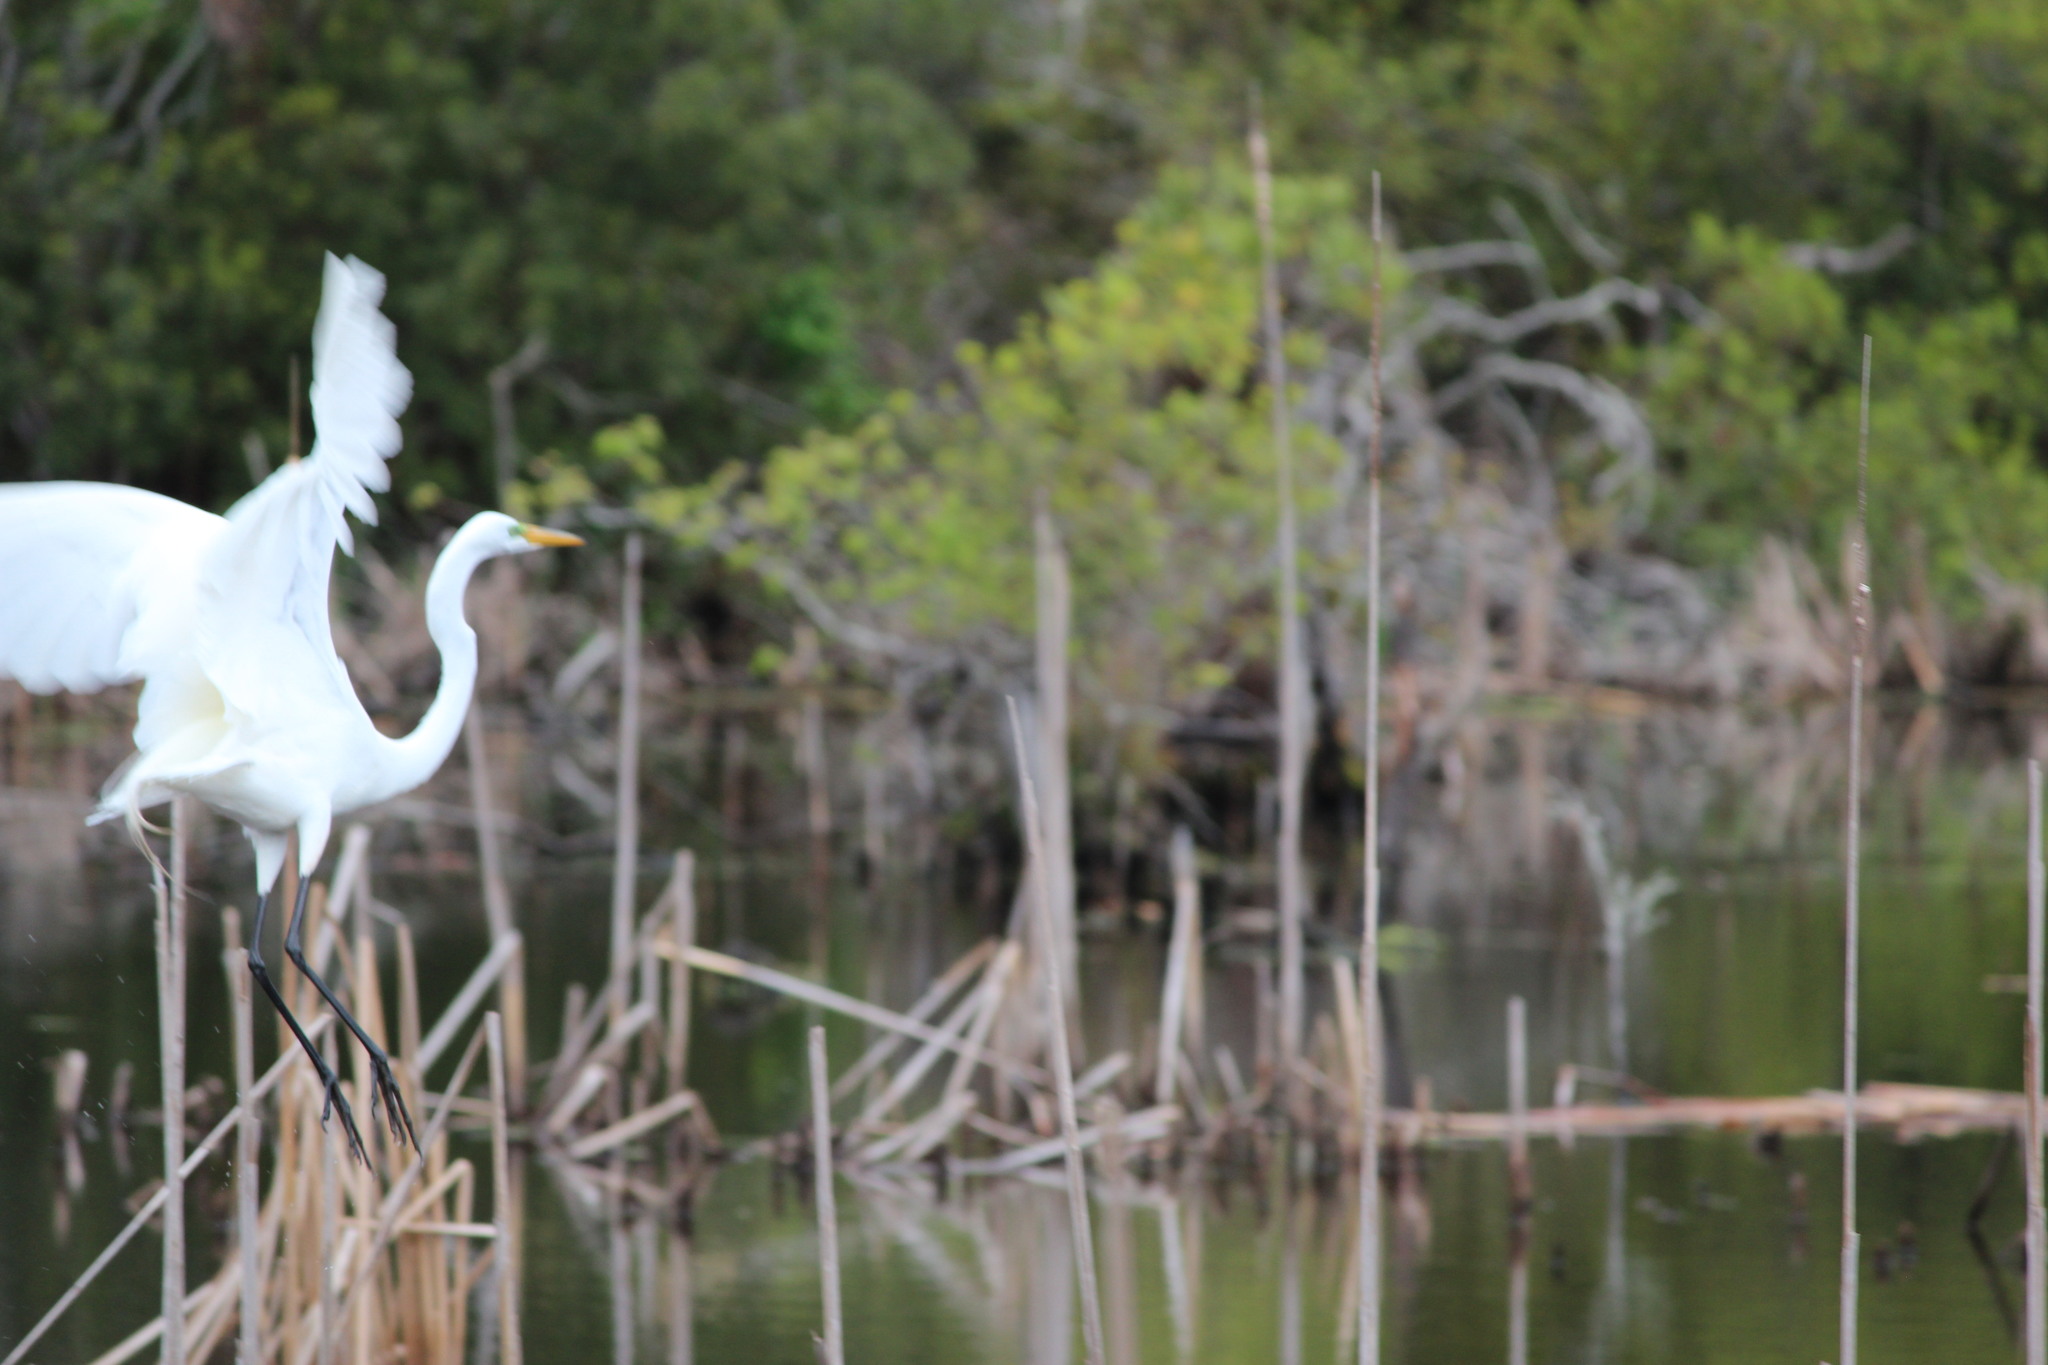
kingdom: Animalia
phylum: Chordata
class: Aves
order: Pelecaniformes
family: Ardeidae
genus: Ardea
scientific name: Ardea alba
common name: Great egret
